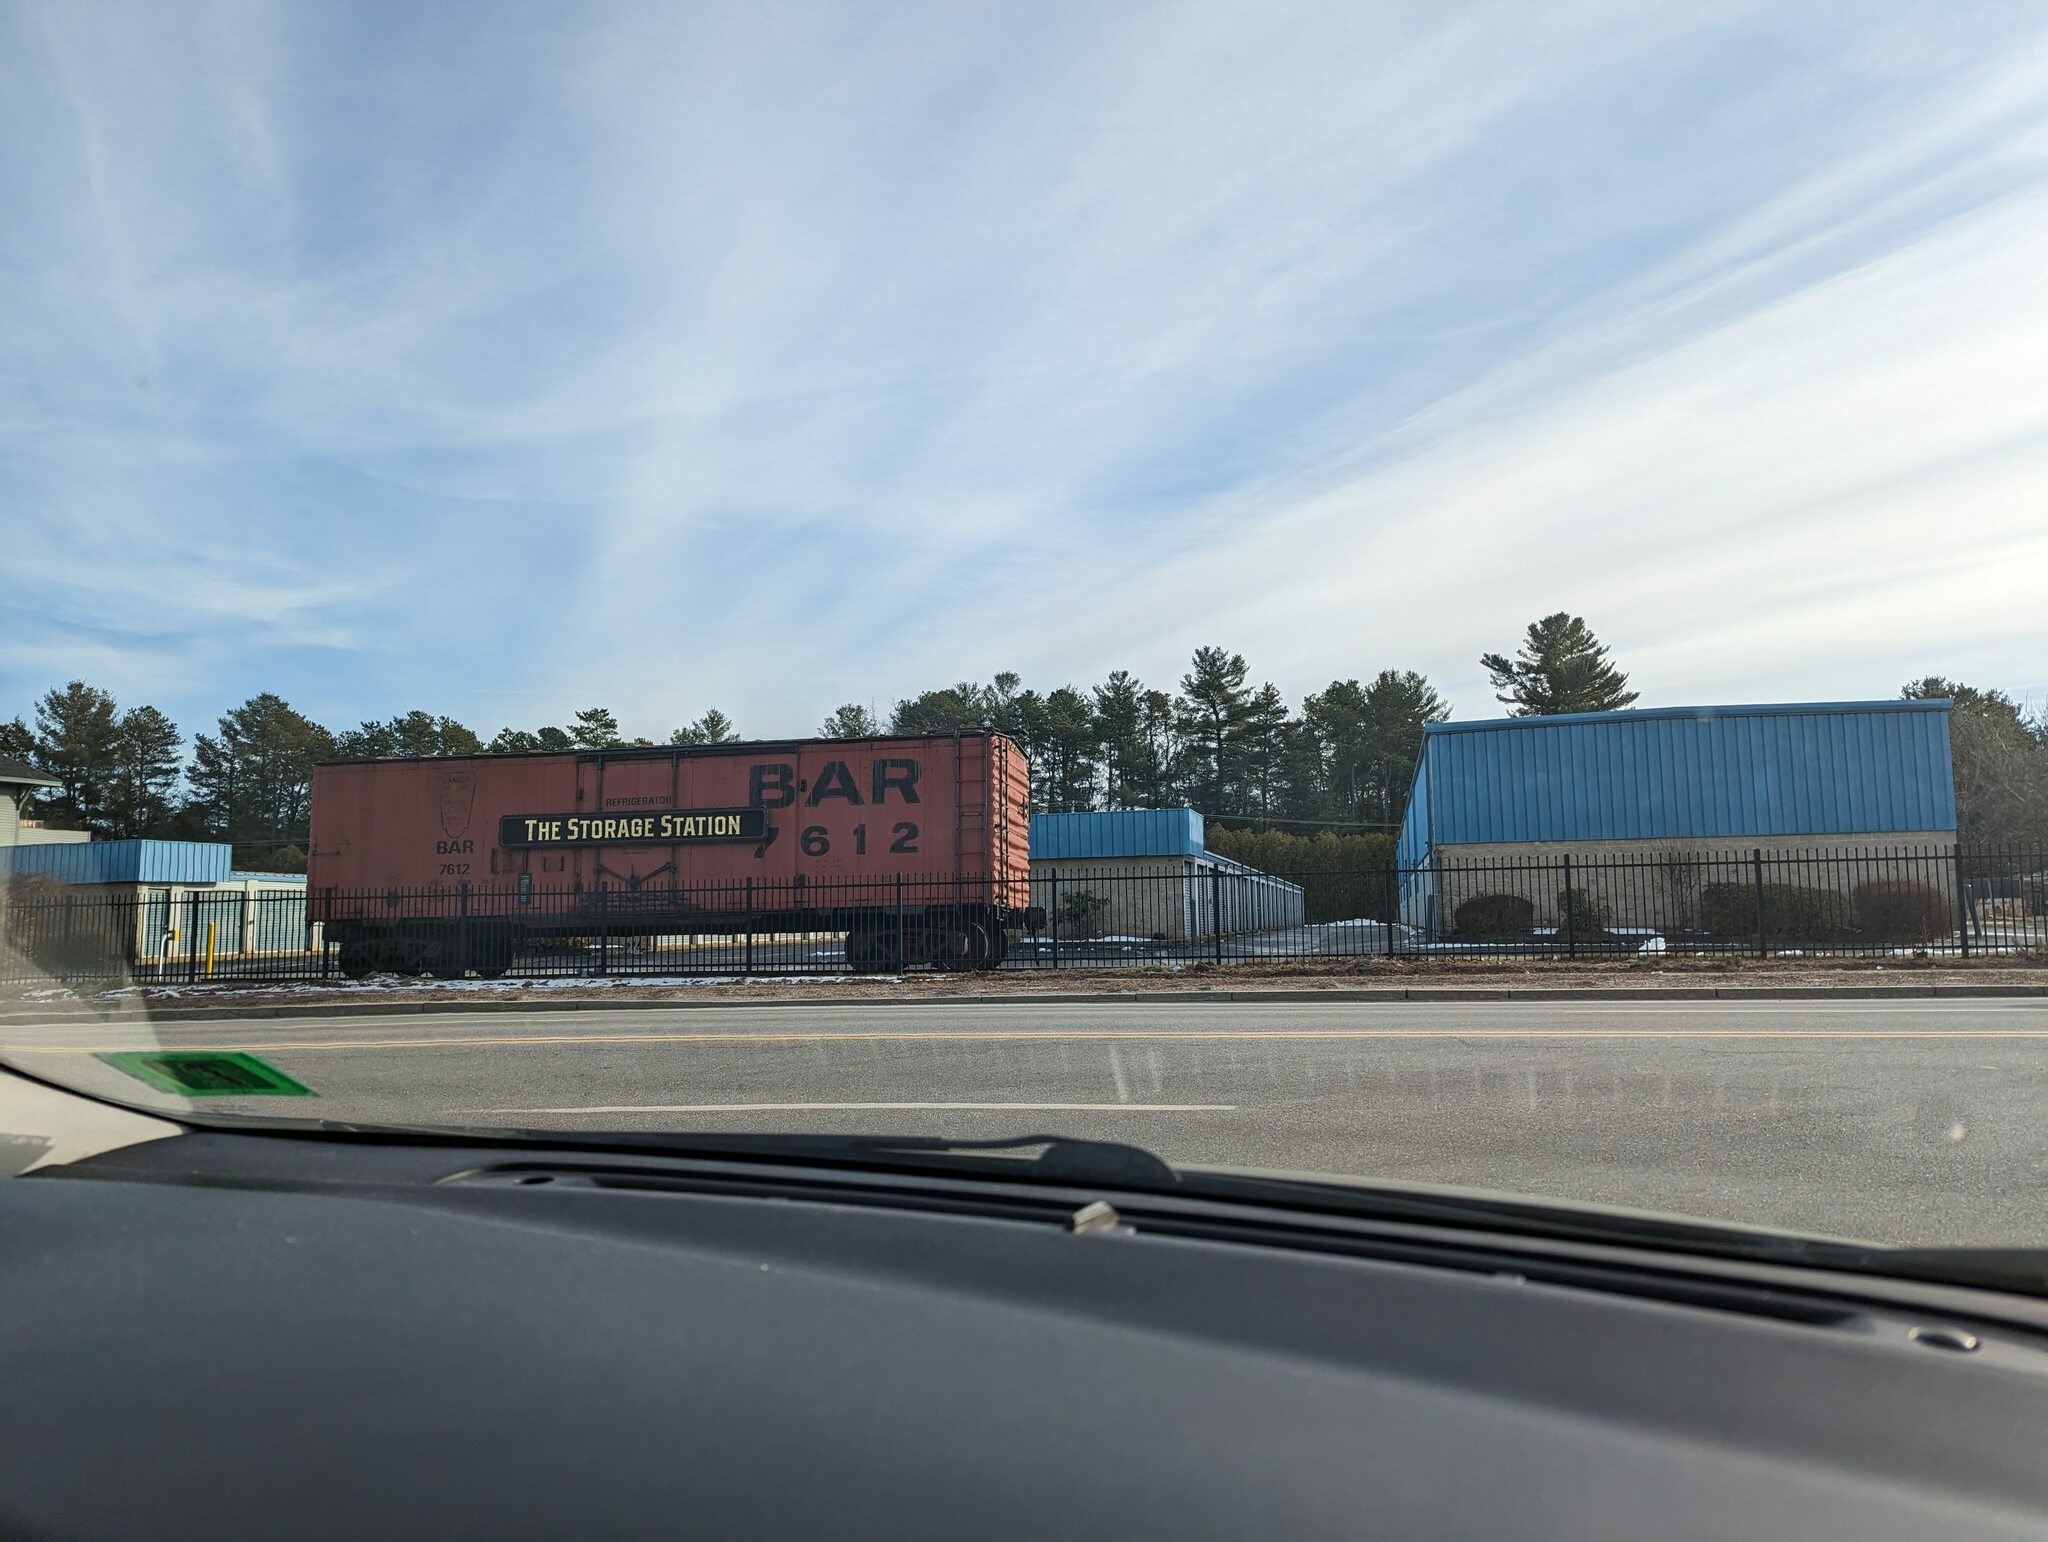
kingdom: Plantae
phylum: Tracheophyta
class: Pinopsida
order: Pinales
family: Pinaceae
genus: Pinus
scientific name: Pinus strobus
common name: Weymouth pine
